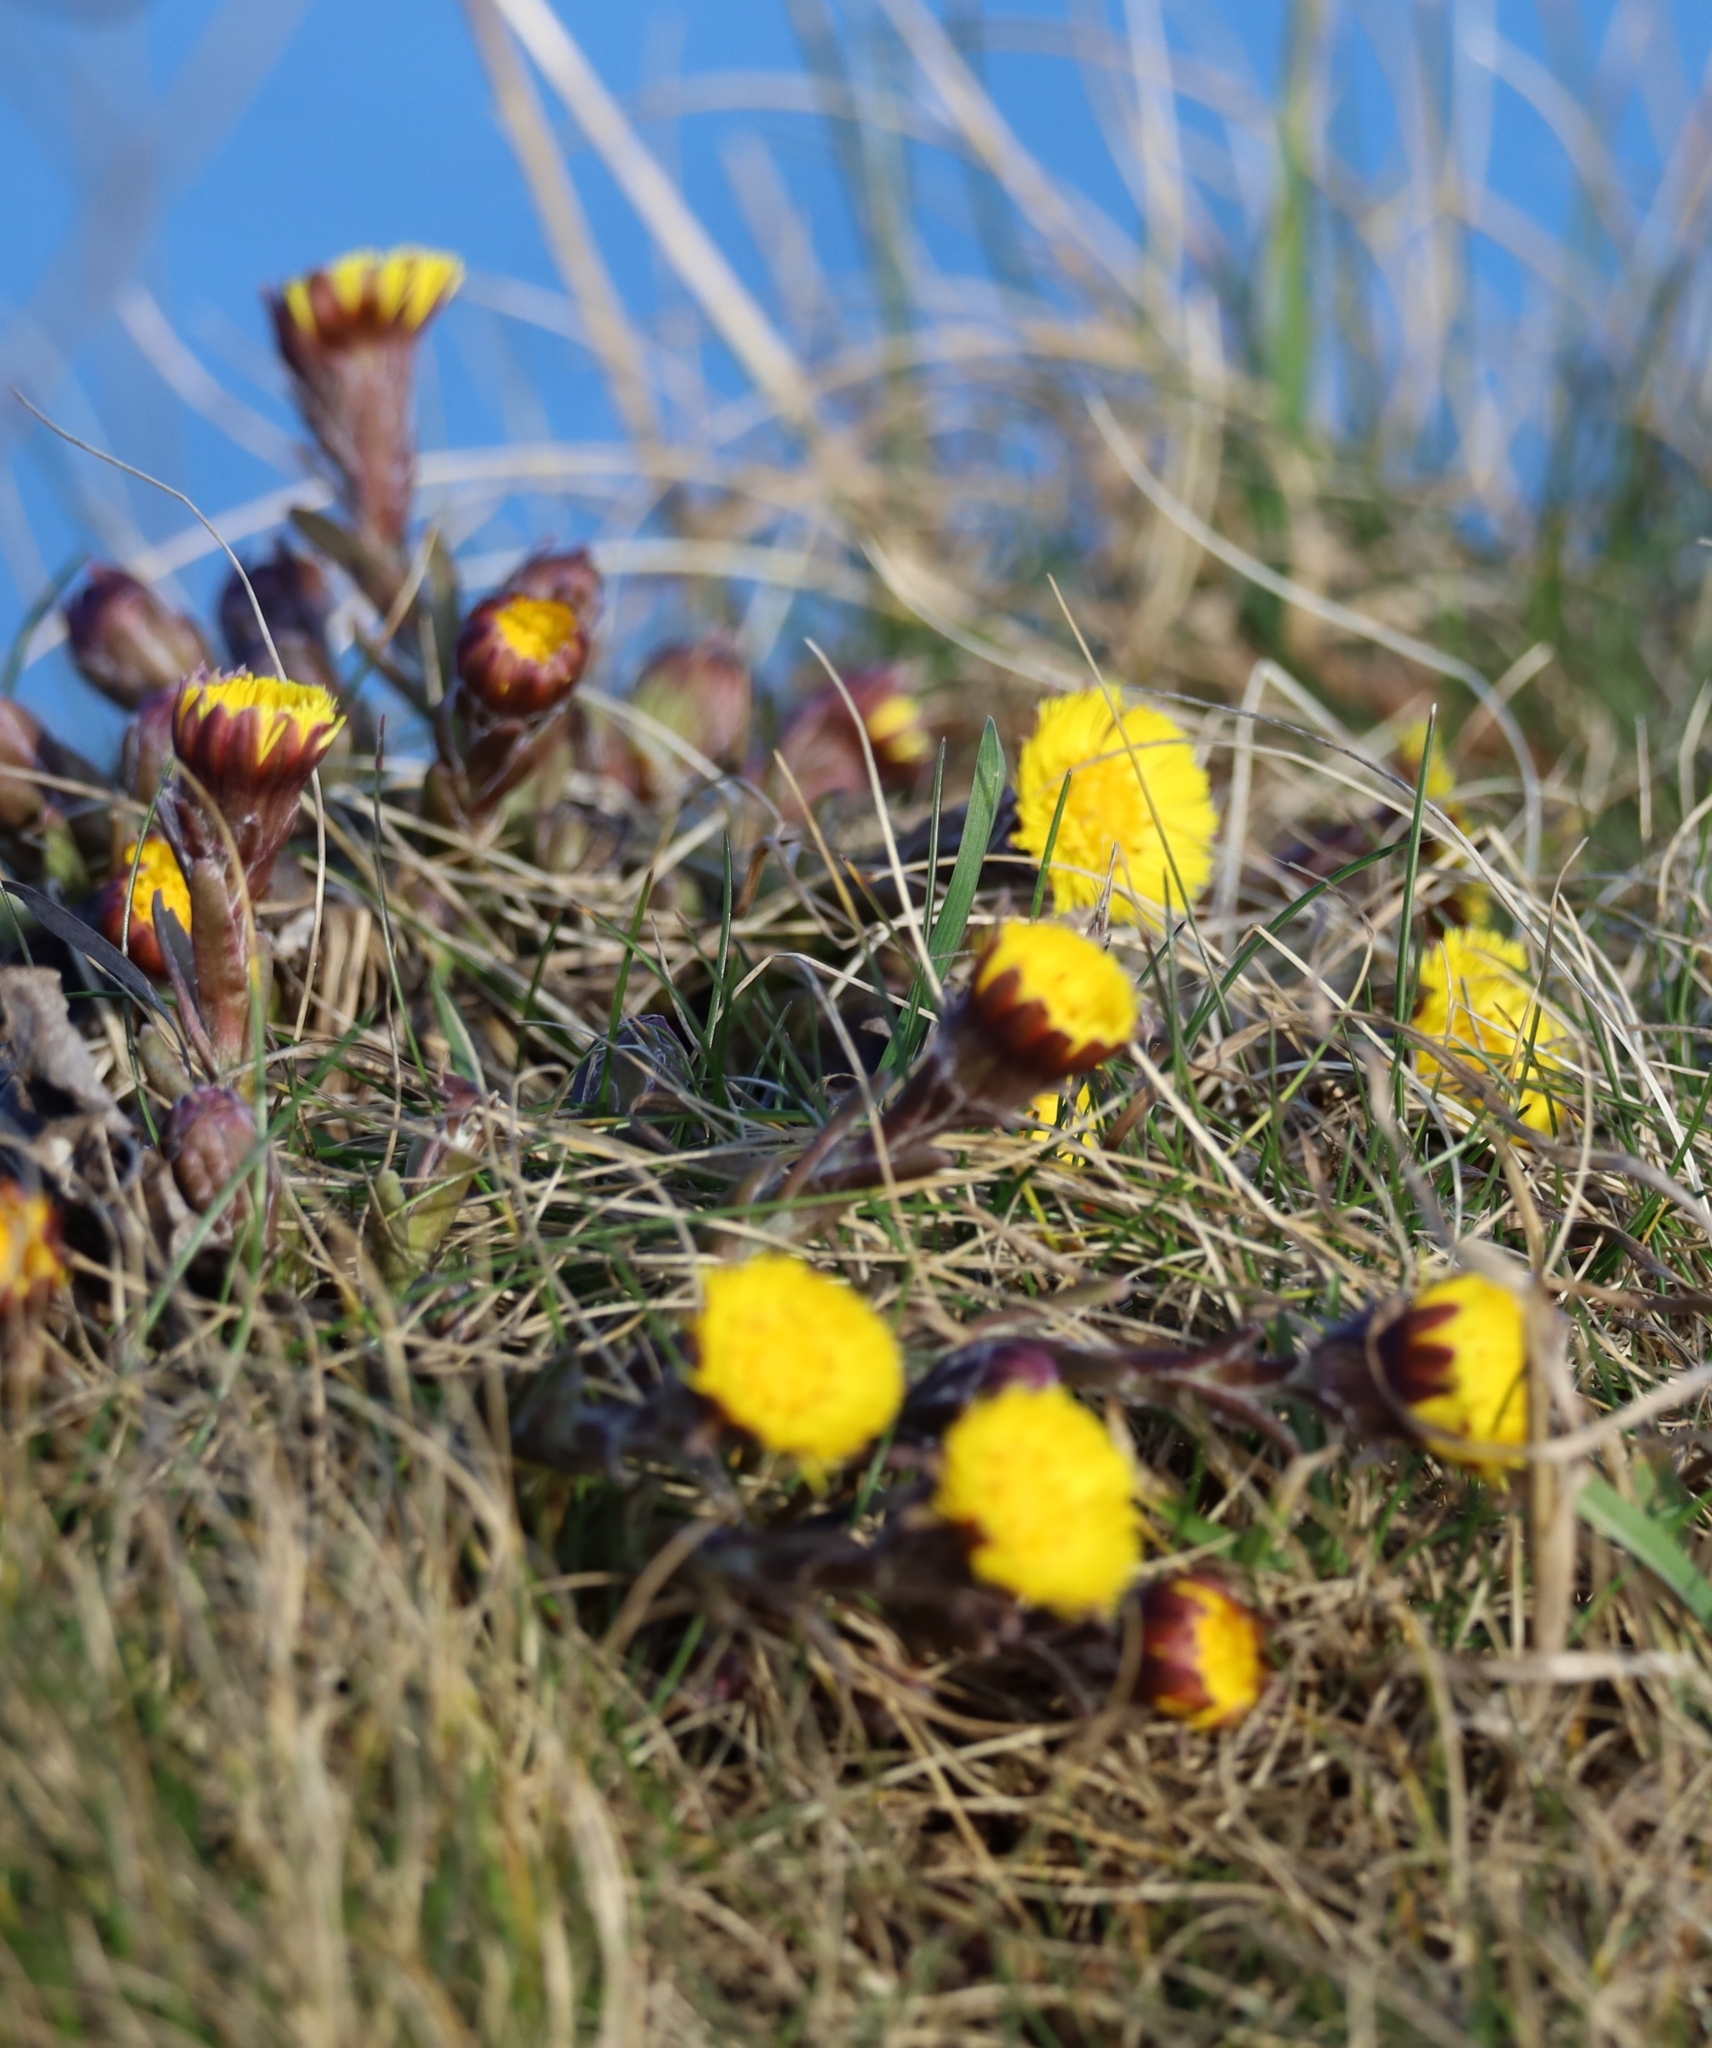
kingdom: Plantae
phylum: Tracheophyta
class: Magnoliopsida
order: Asterales
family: Asteraceae
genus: Tussilago
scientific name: Tussilago farfara
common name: Coltsfoot
